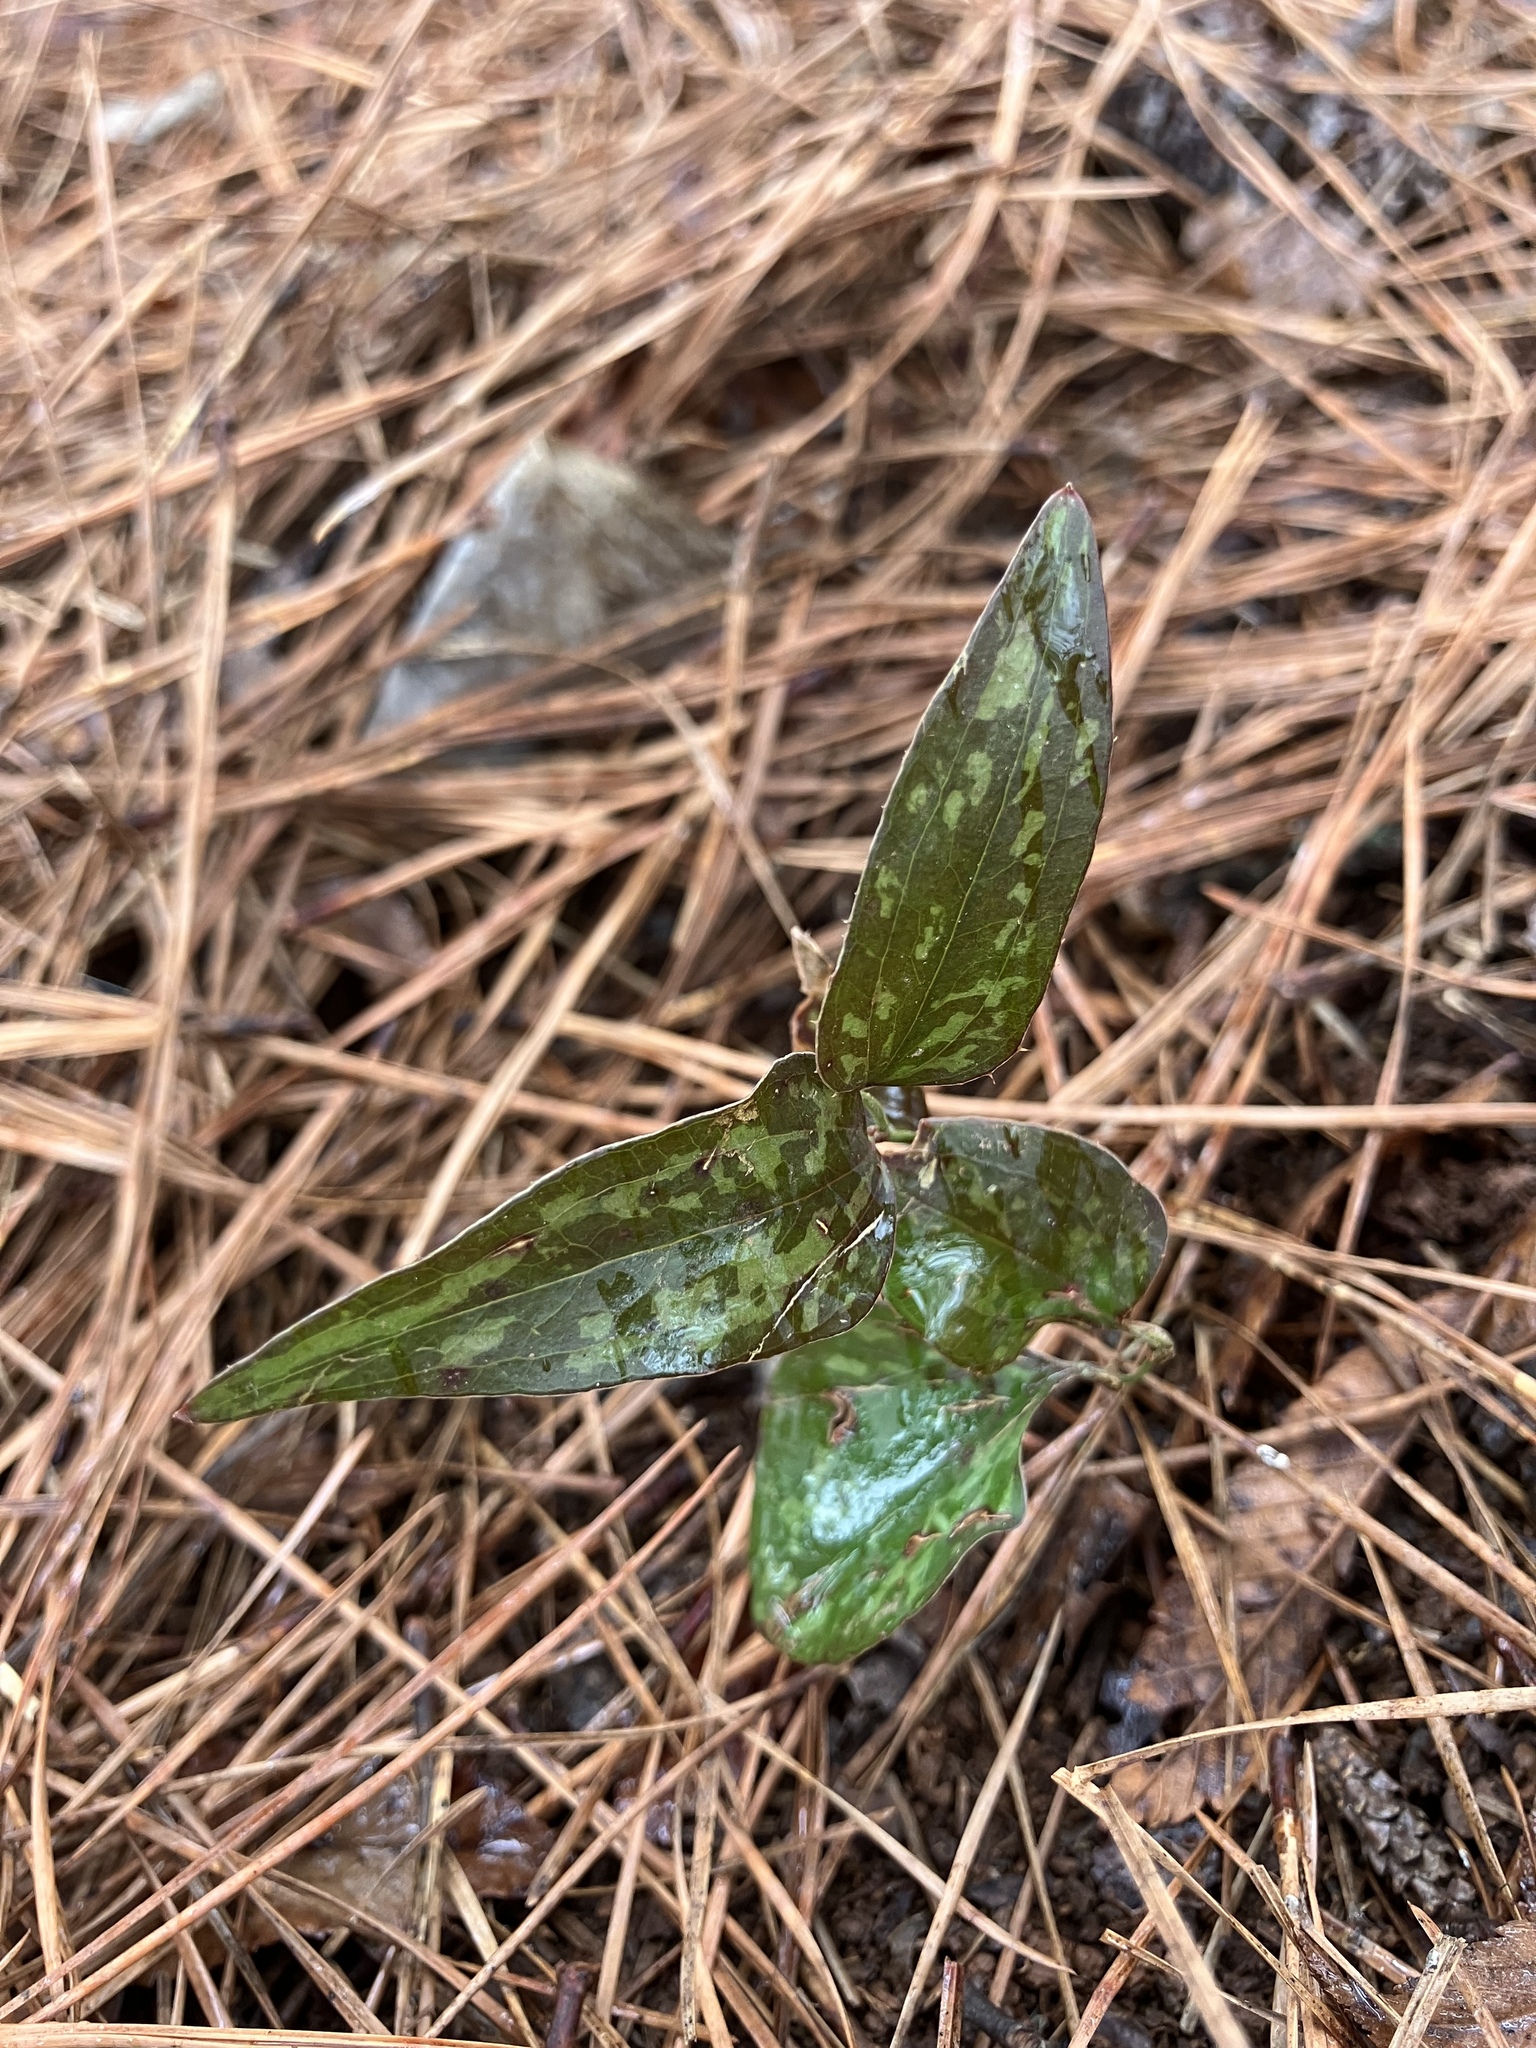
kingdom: Plantae
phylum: Tracheophyta
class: Liliopsida
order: Liliales
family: Smilacaceae
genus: Smilax
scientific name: Smilax bona-nox
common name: Catbrier
